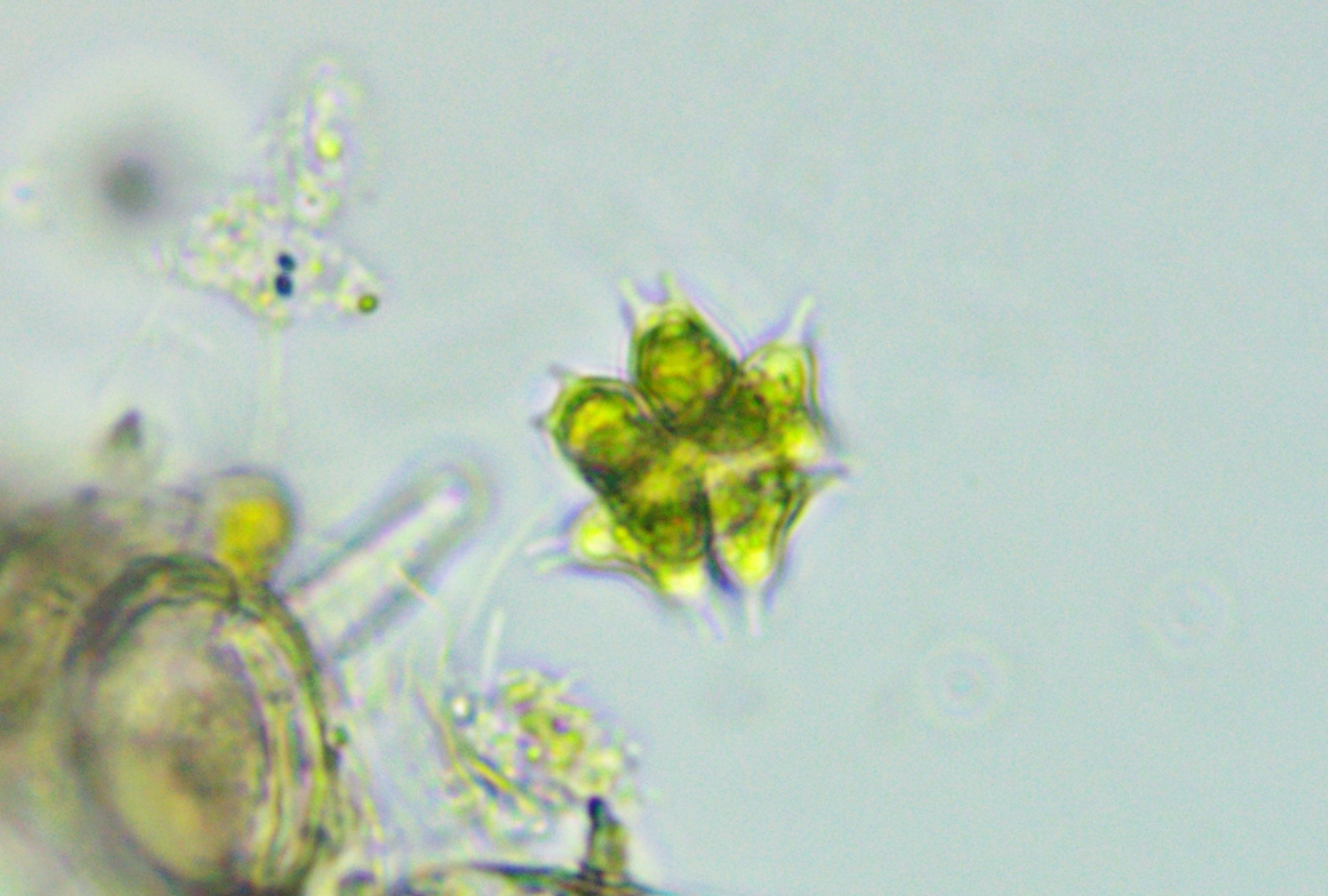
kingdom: Plantae
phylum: Chlorophyta
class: Chlorophyceae
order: Sphaeropleales
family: Hydrodictyaceae
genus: Sorastrum
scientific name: Sorastrum spinulosum
